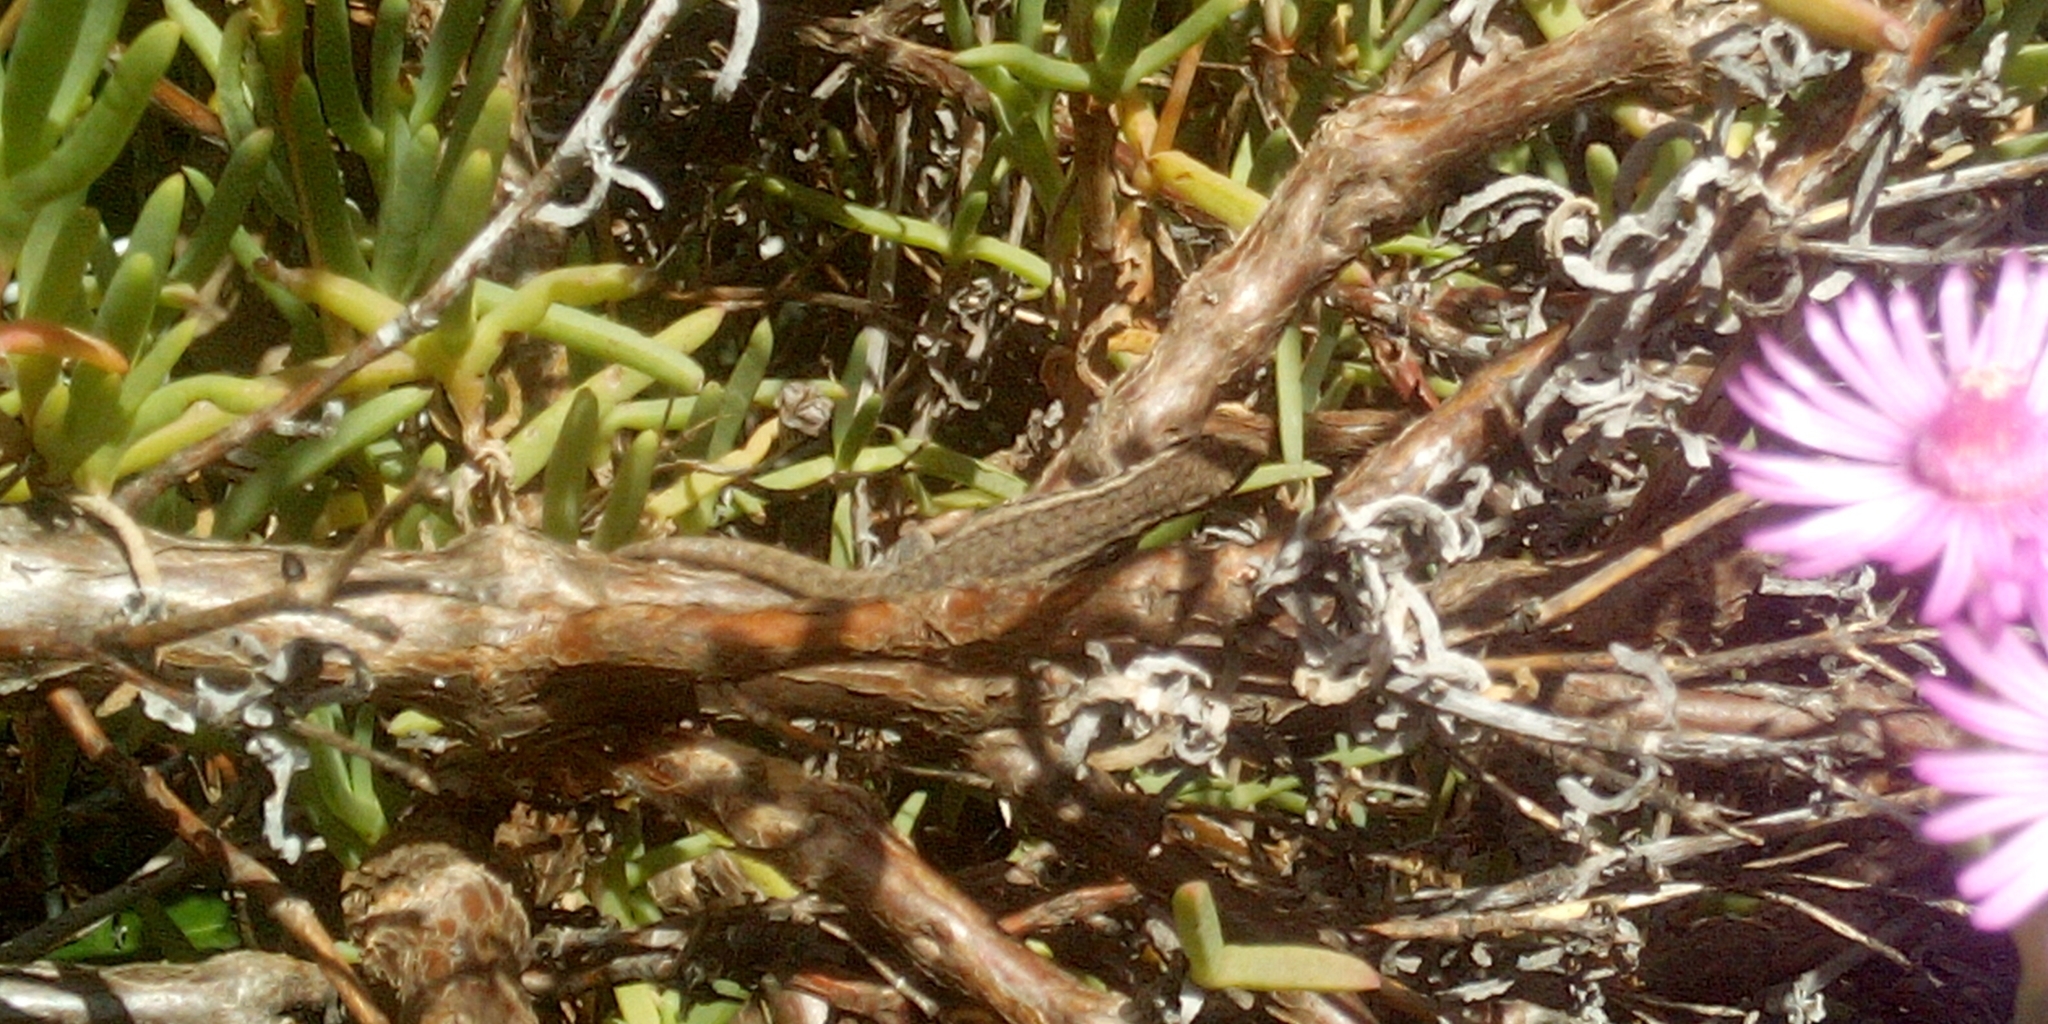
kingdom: Animalia
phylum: Chordata
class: Squamata
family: Gekkonidae
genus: Lygodactylus
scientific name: Lygodactylus capensis
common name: Cape dwarf gecko
